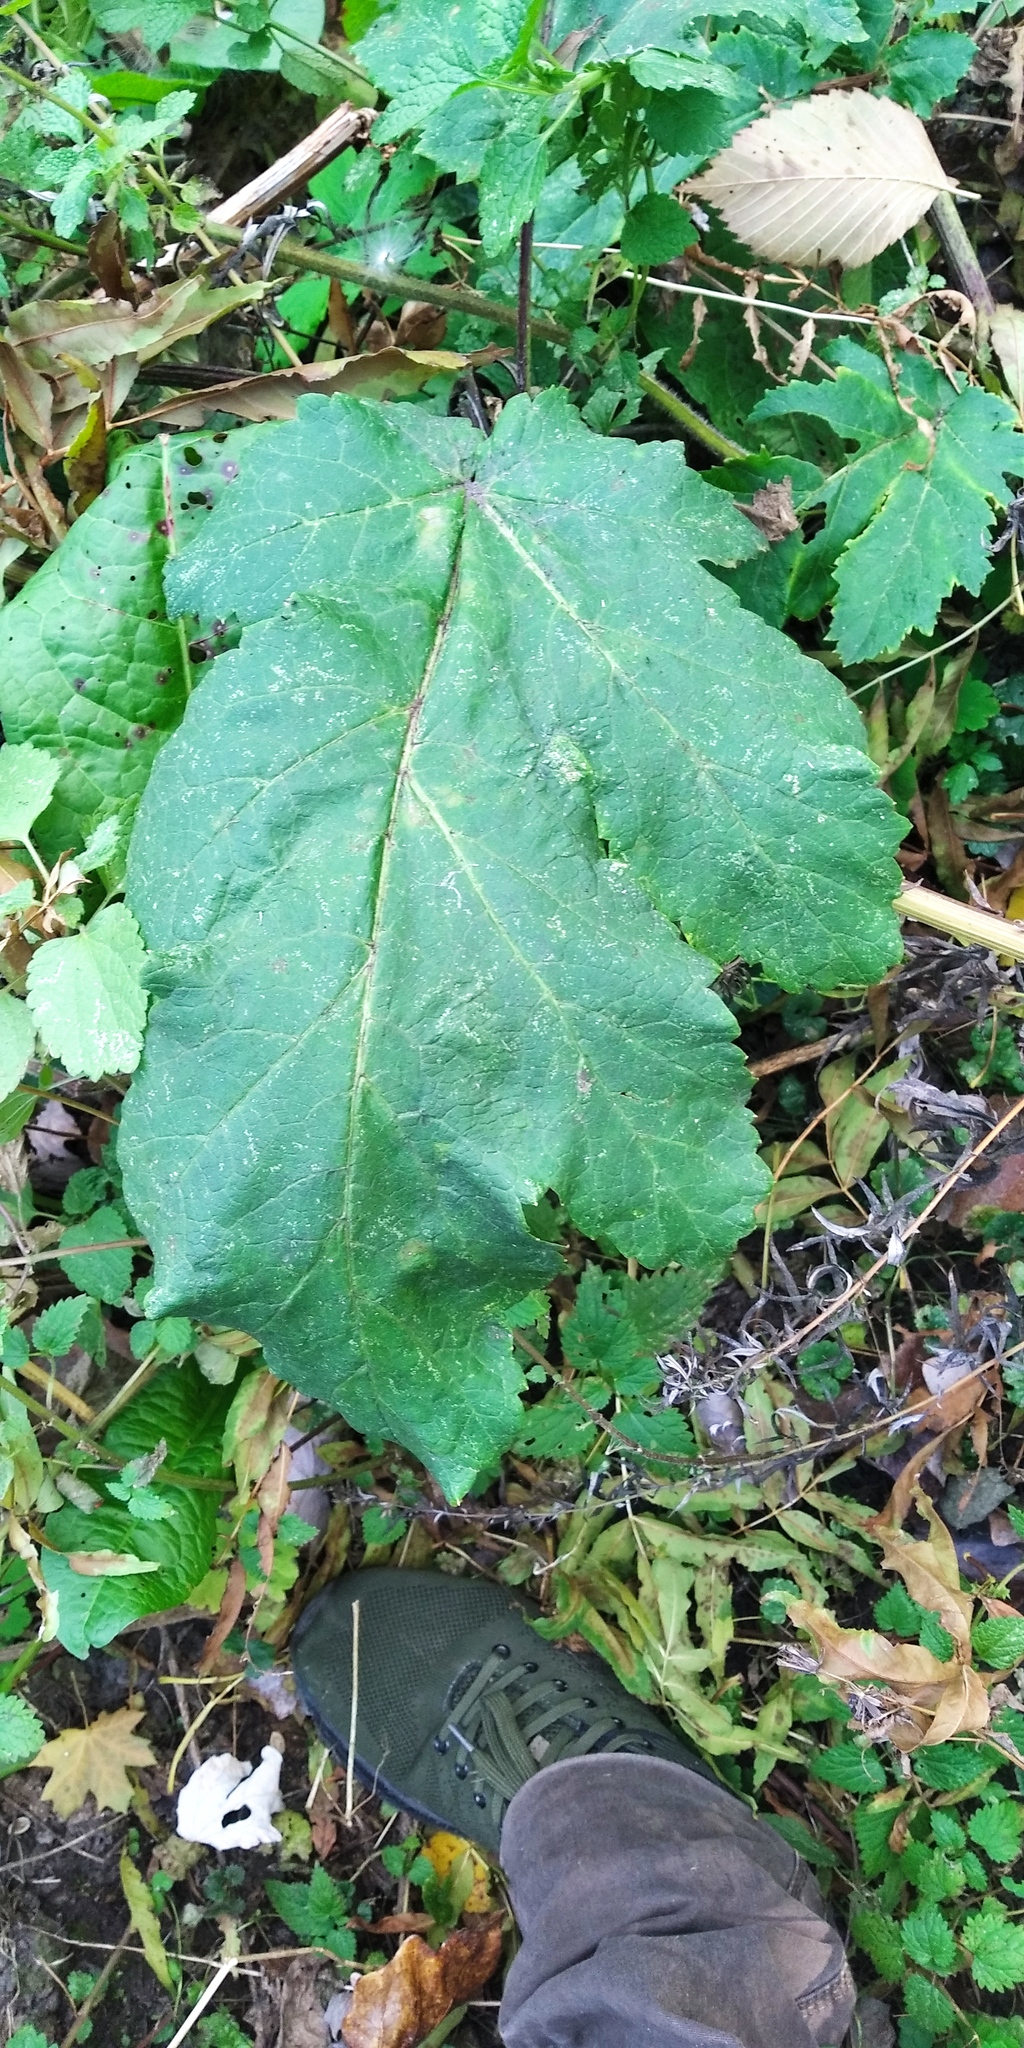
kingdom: Plantae
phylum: Tracheophyta
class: Magnoliopsida
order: Apiales
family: Apiaceae
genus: Heracleum
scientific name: Heracleum sosnowskyi
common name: Sosnowsky's hogweed
